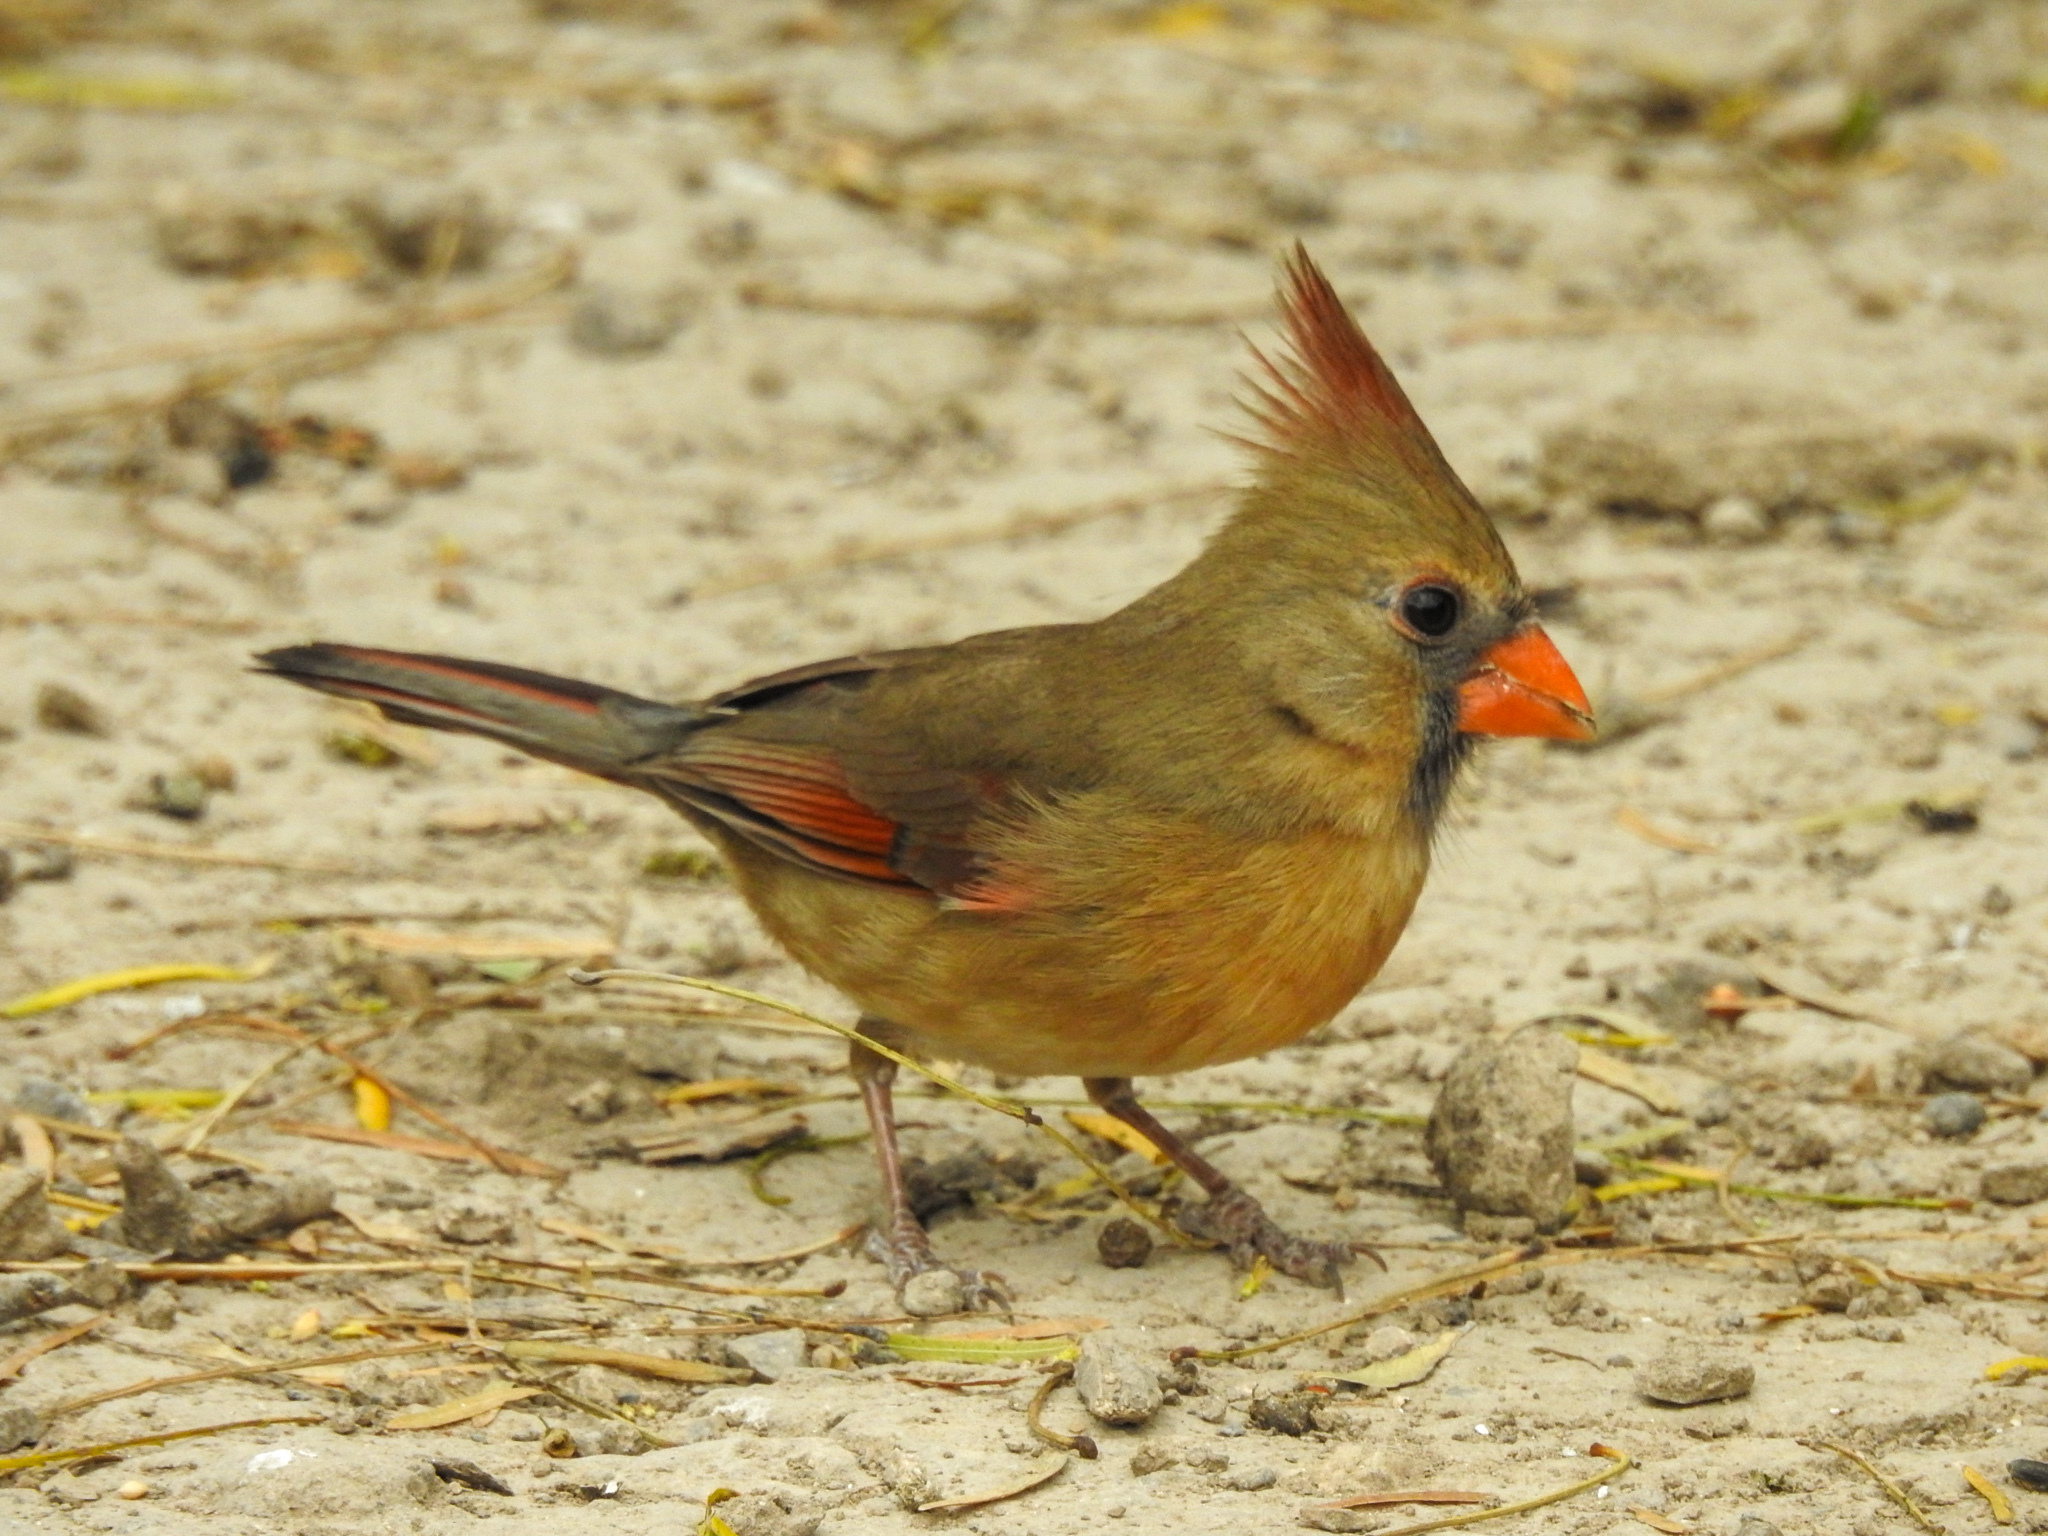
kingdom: Animalia
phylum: Chordata
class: Aves
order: Passeriformes
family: Cardinalidae
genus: Cardinalis
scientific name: Cardinalis cardinalis
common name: Northern cardinal
